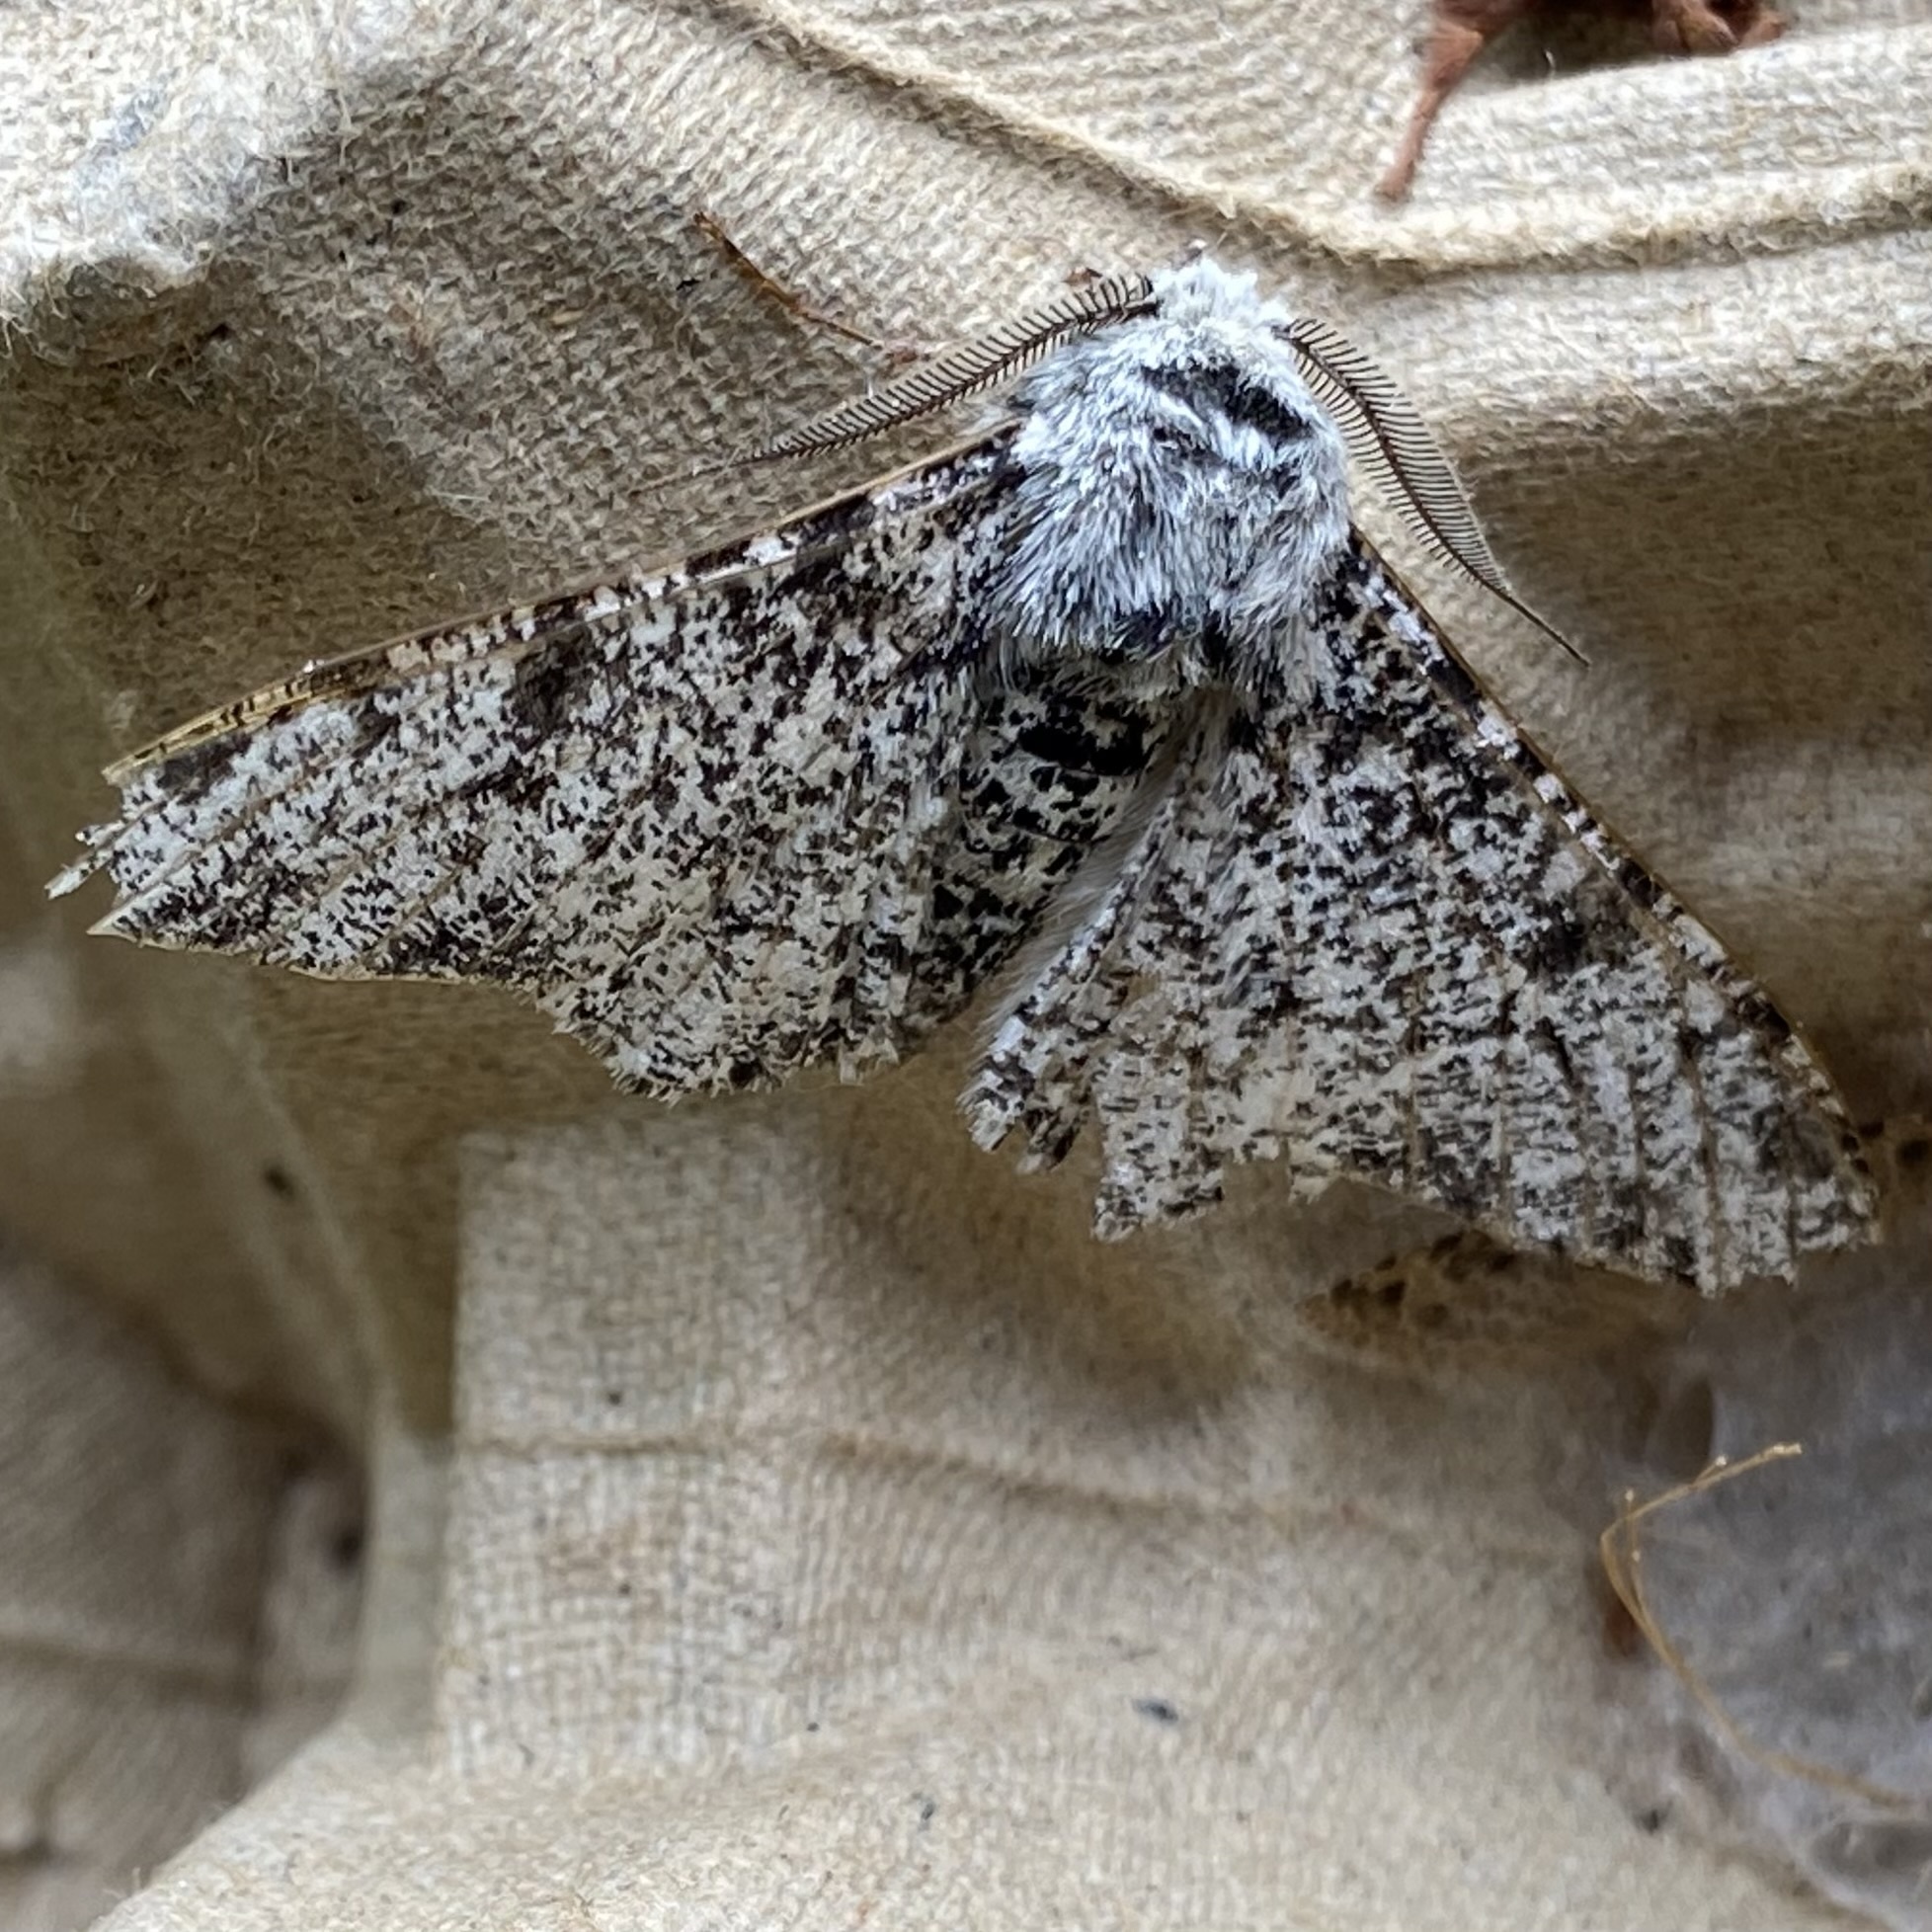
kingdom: Animalia
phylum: Arthropoda
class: Insecta
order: Lepidoptera
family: Geometridae
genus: Biston
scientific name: Biston betularia
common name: Peppered moth
